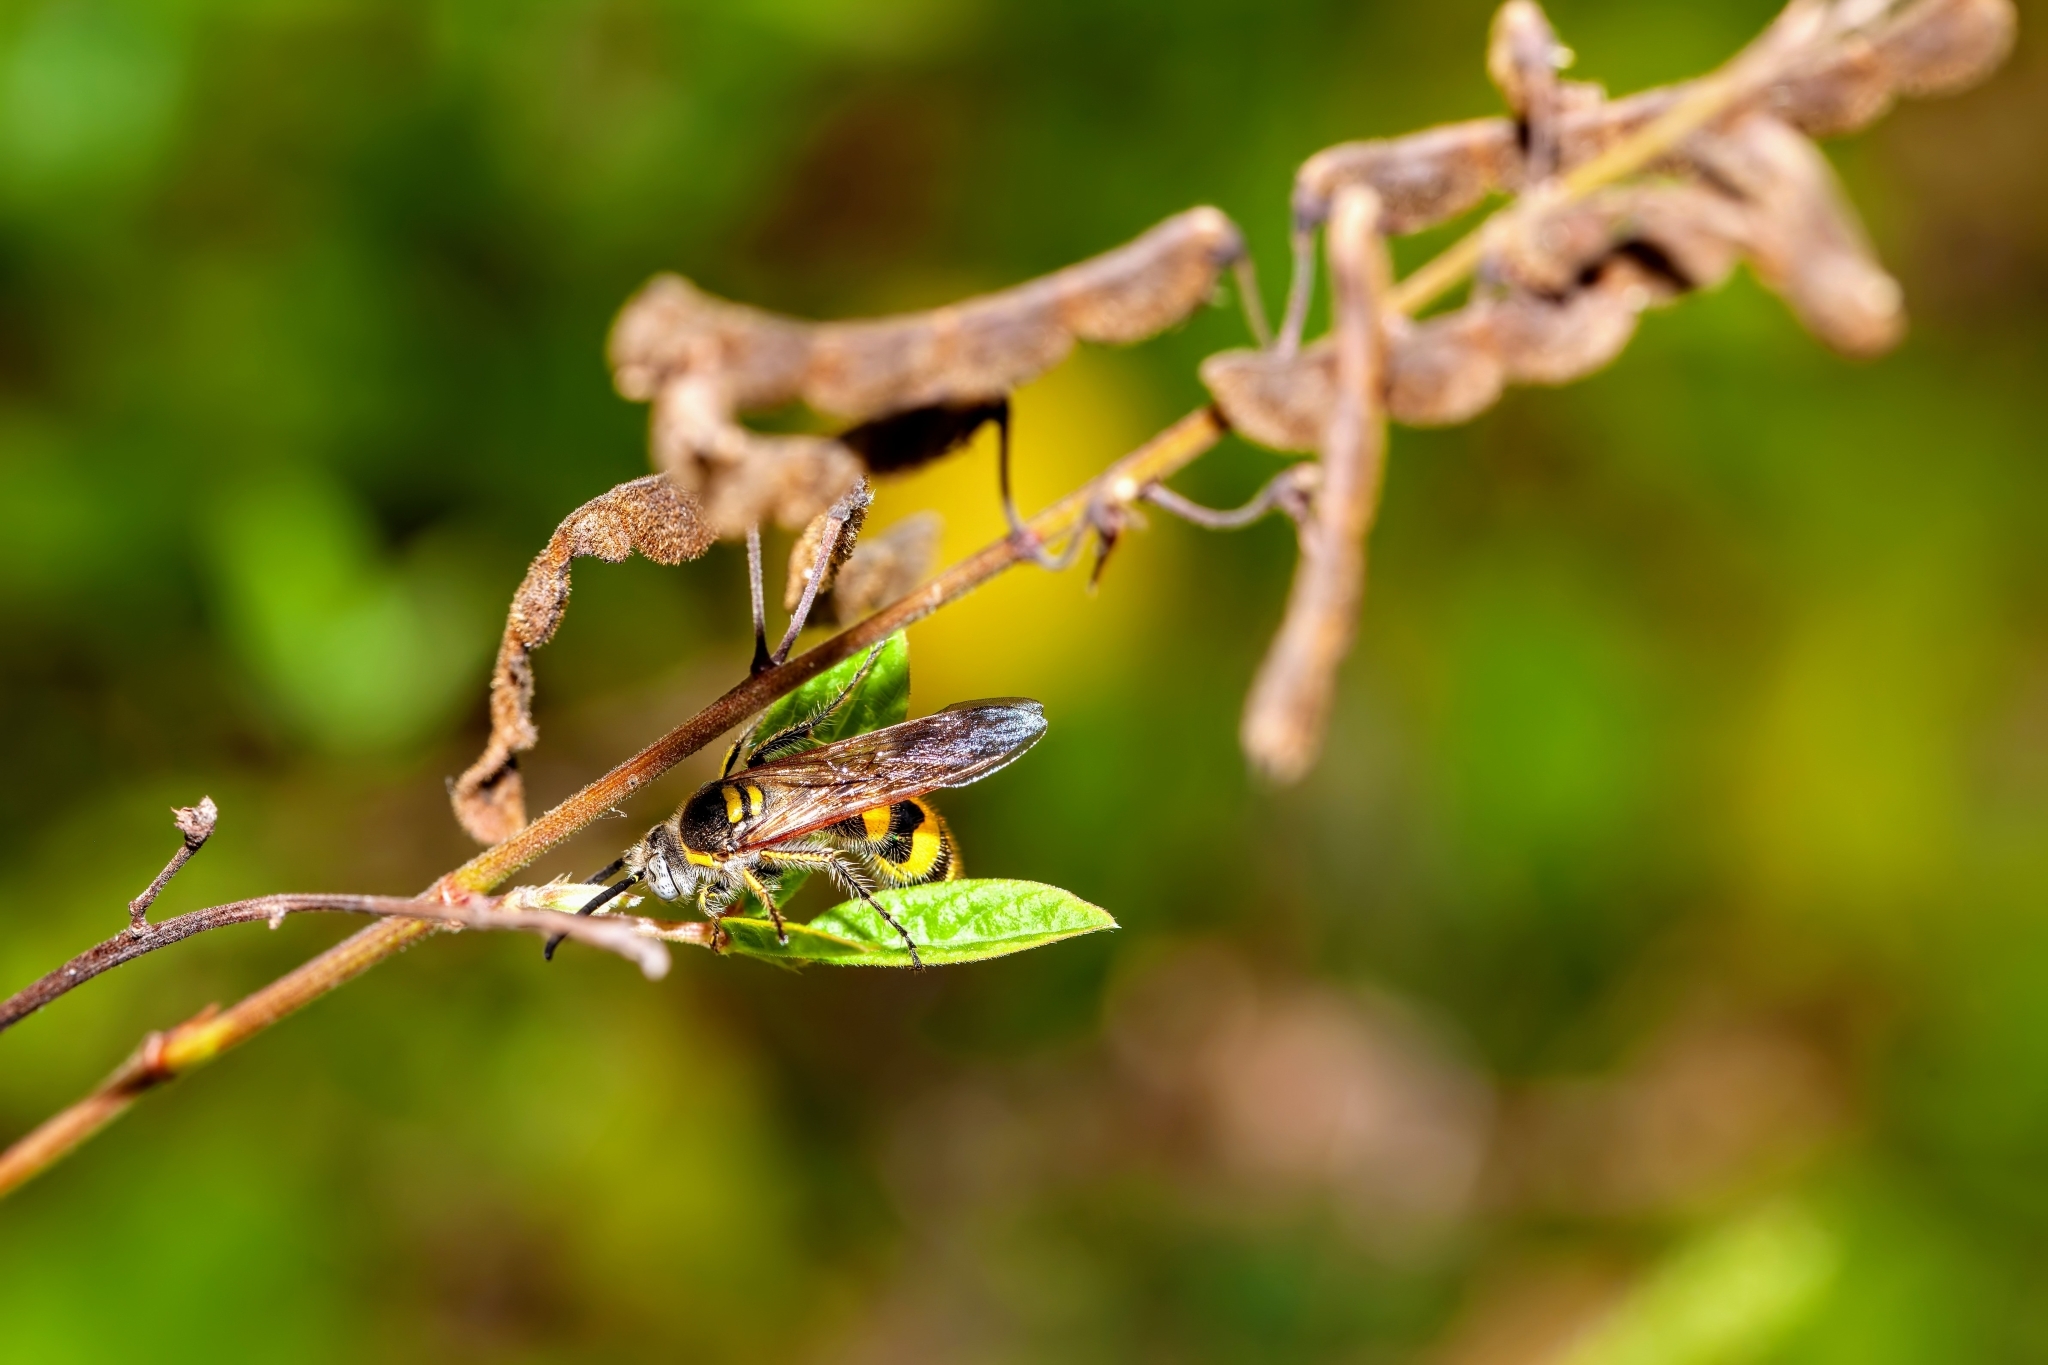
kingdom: Animalia
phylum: Arthropoda
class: Insecta
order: Hymenoptera
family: Scoliidae
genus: Dielis
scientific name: Dielis
